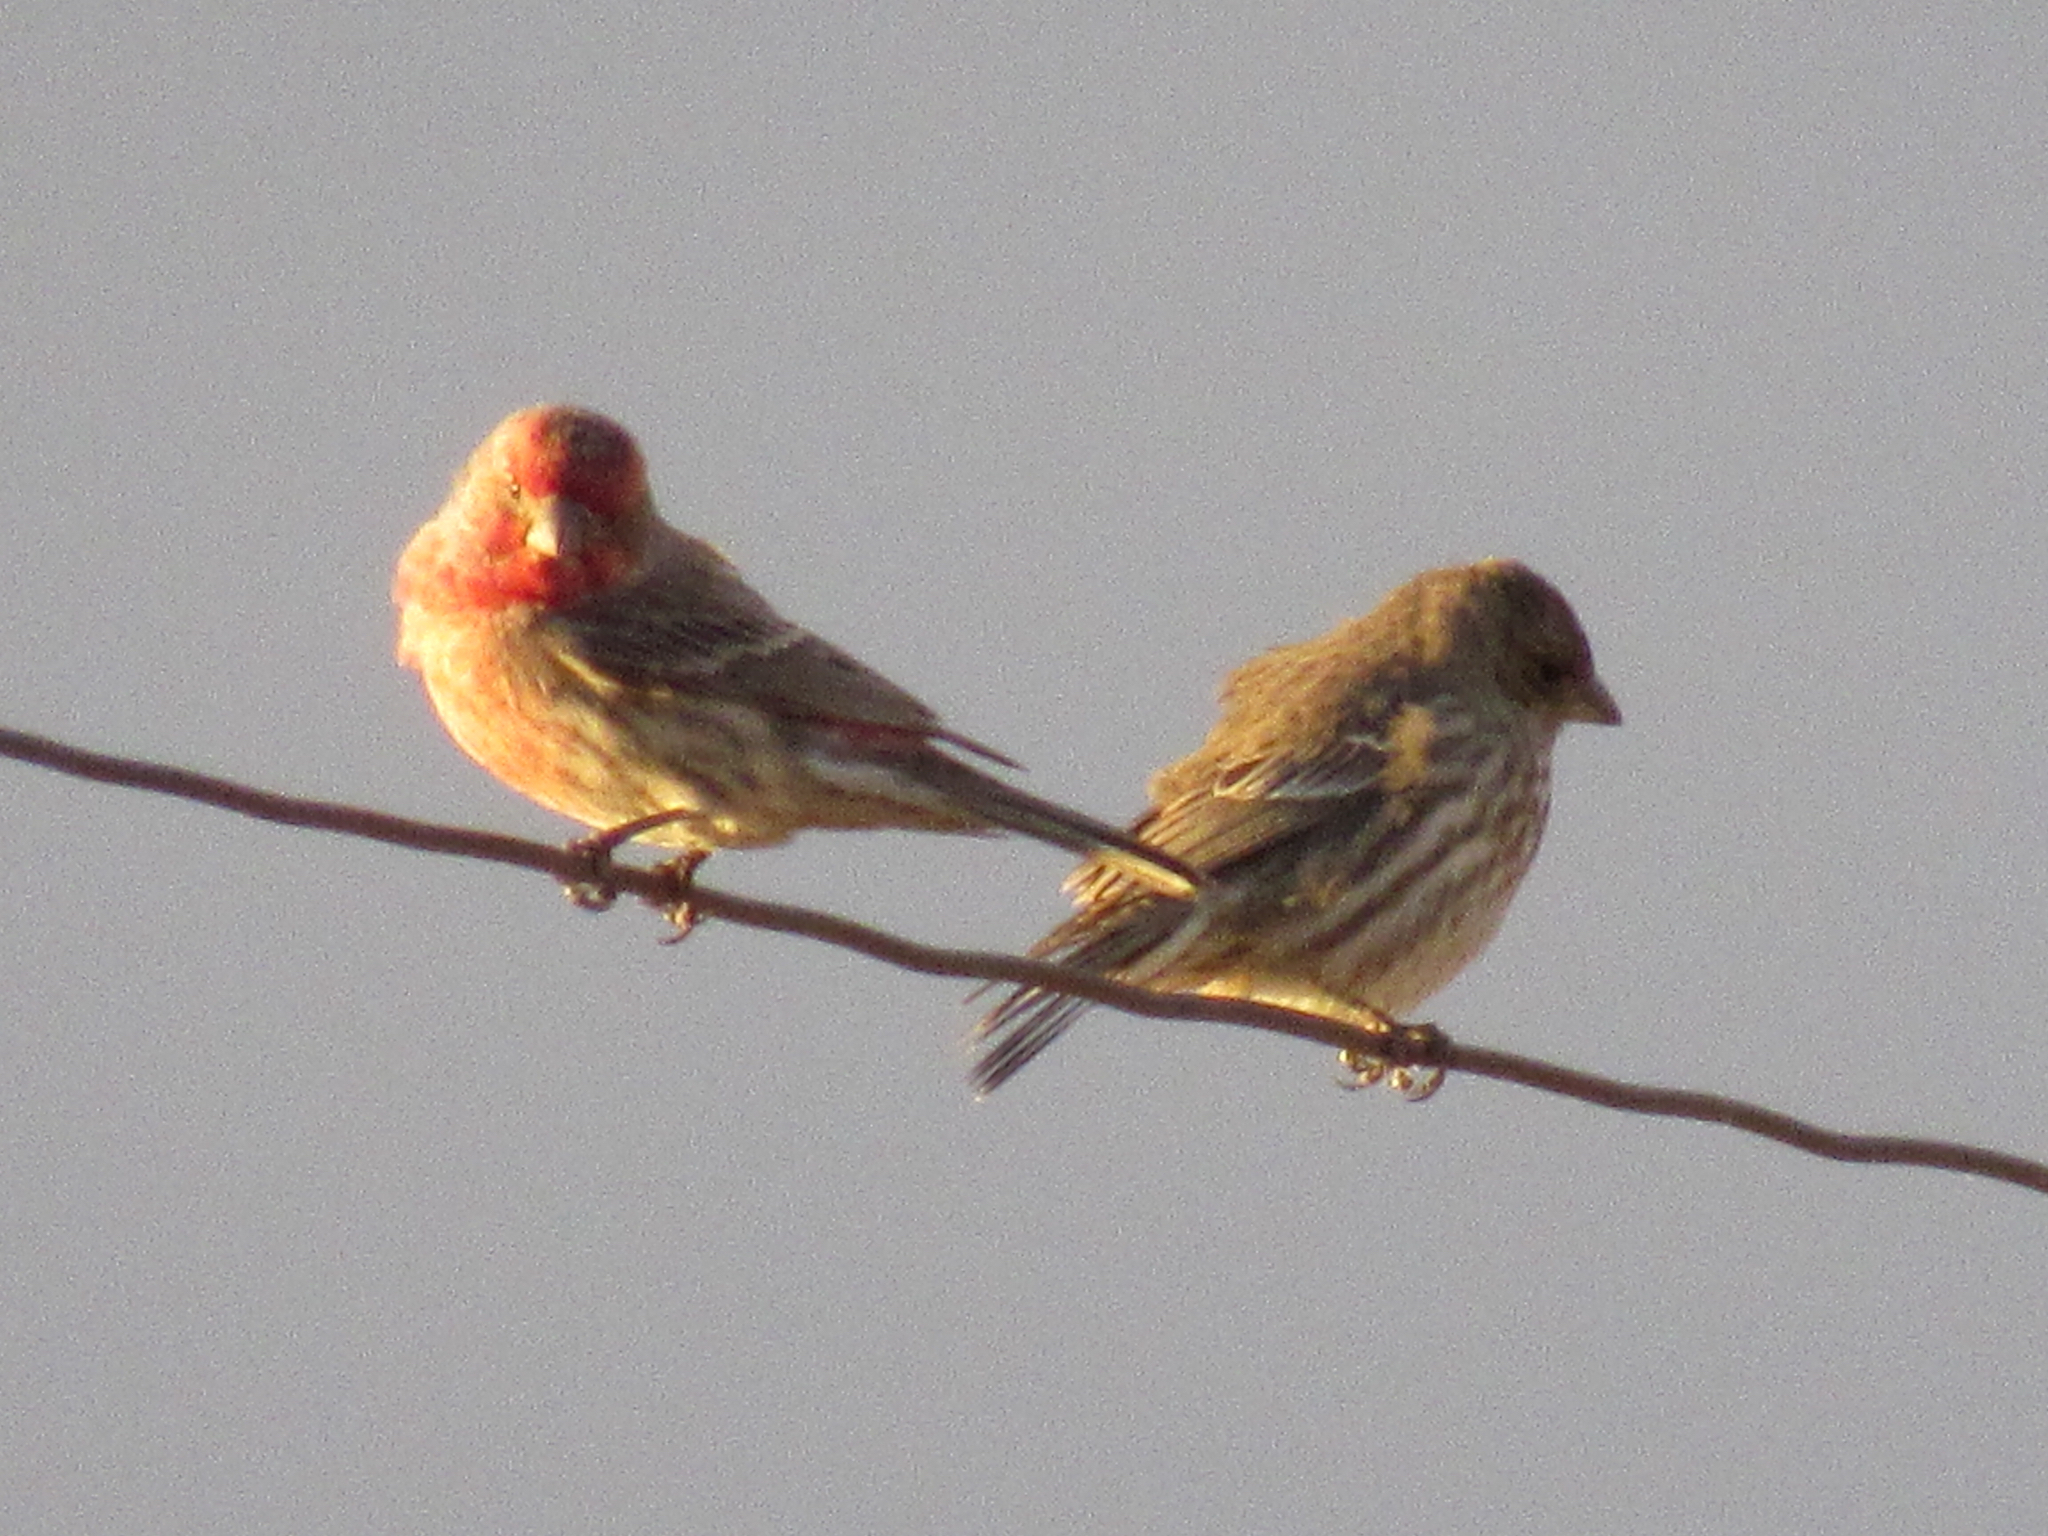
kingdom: Animalia
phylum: Chordata
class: Aves
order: Passeriformes
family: Fringillidae
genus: Haemorhous
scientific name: Haemorhous mexicanus
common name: House finch
